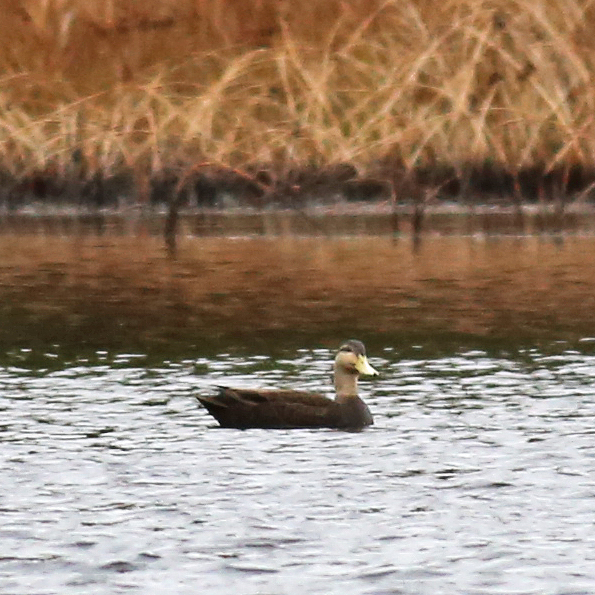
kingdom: Animalia
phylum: Chordata
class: Aves
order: Anseriformes
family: Anatidae
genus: Anas
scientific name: Anas rubripes
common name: American black duck
